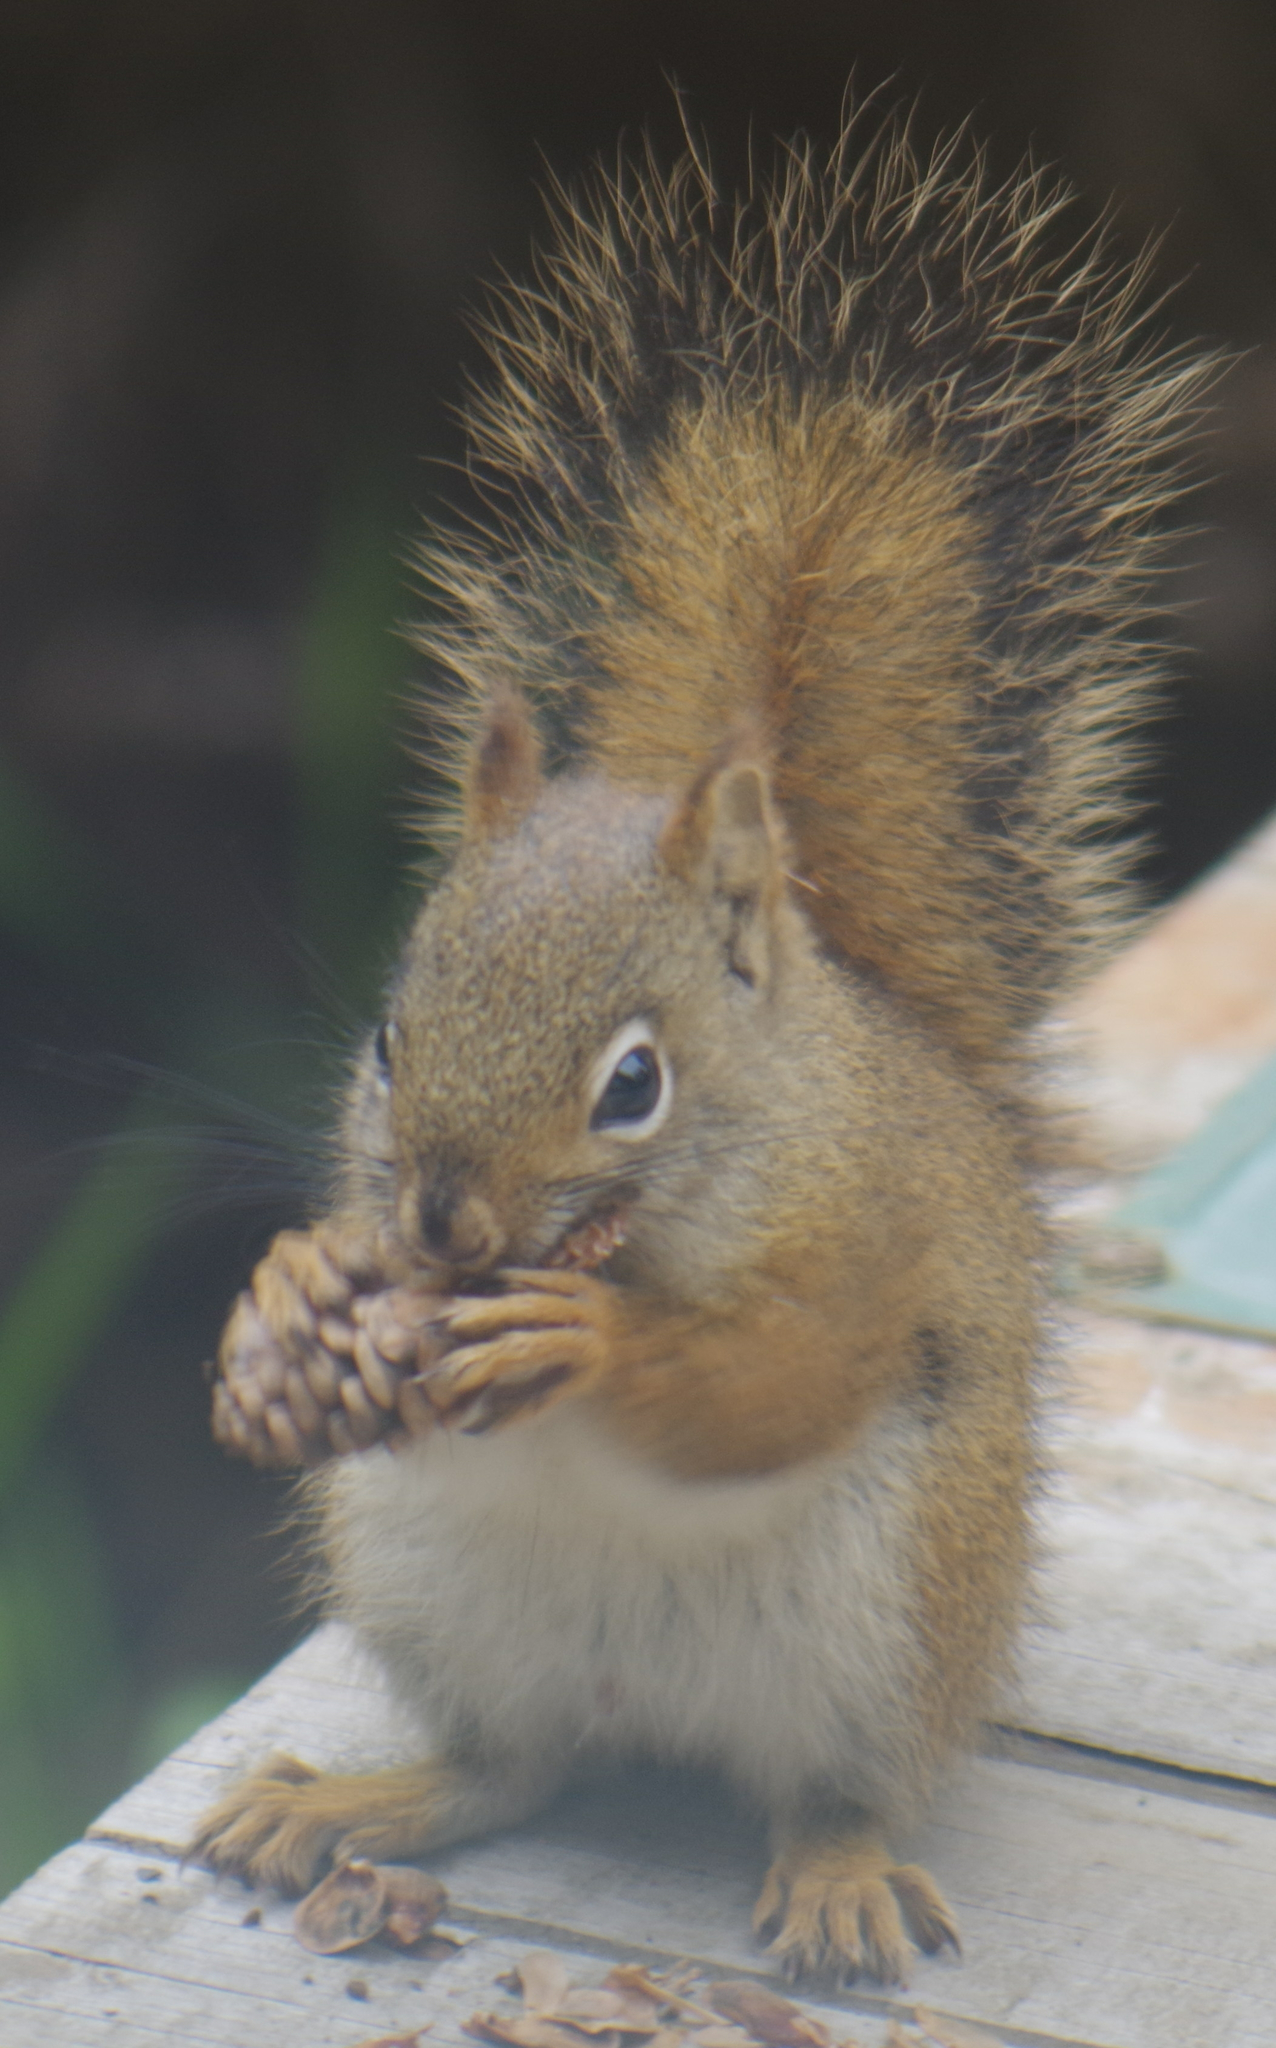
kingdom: Animalia
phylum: Chordata
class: Mammalia
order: Rodentia
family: Sciuridae
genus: Tamiasciurus
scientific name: Tamiasciurus hudsonicus
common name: Red squirrel
